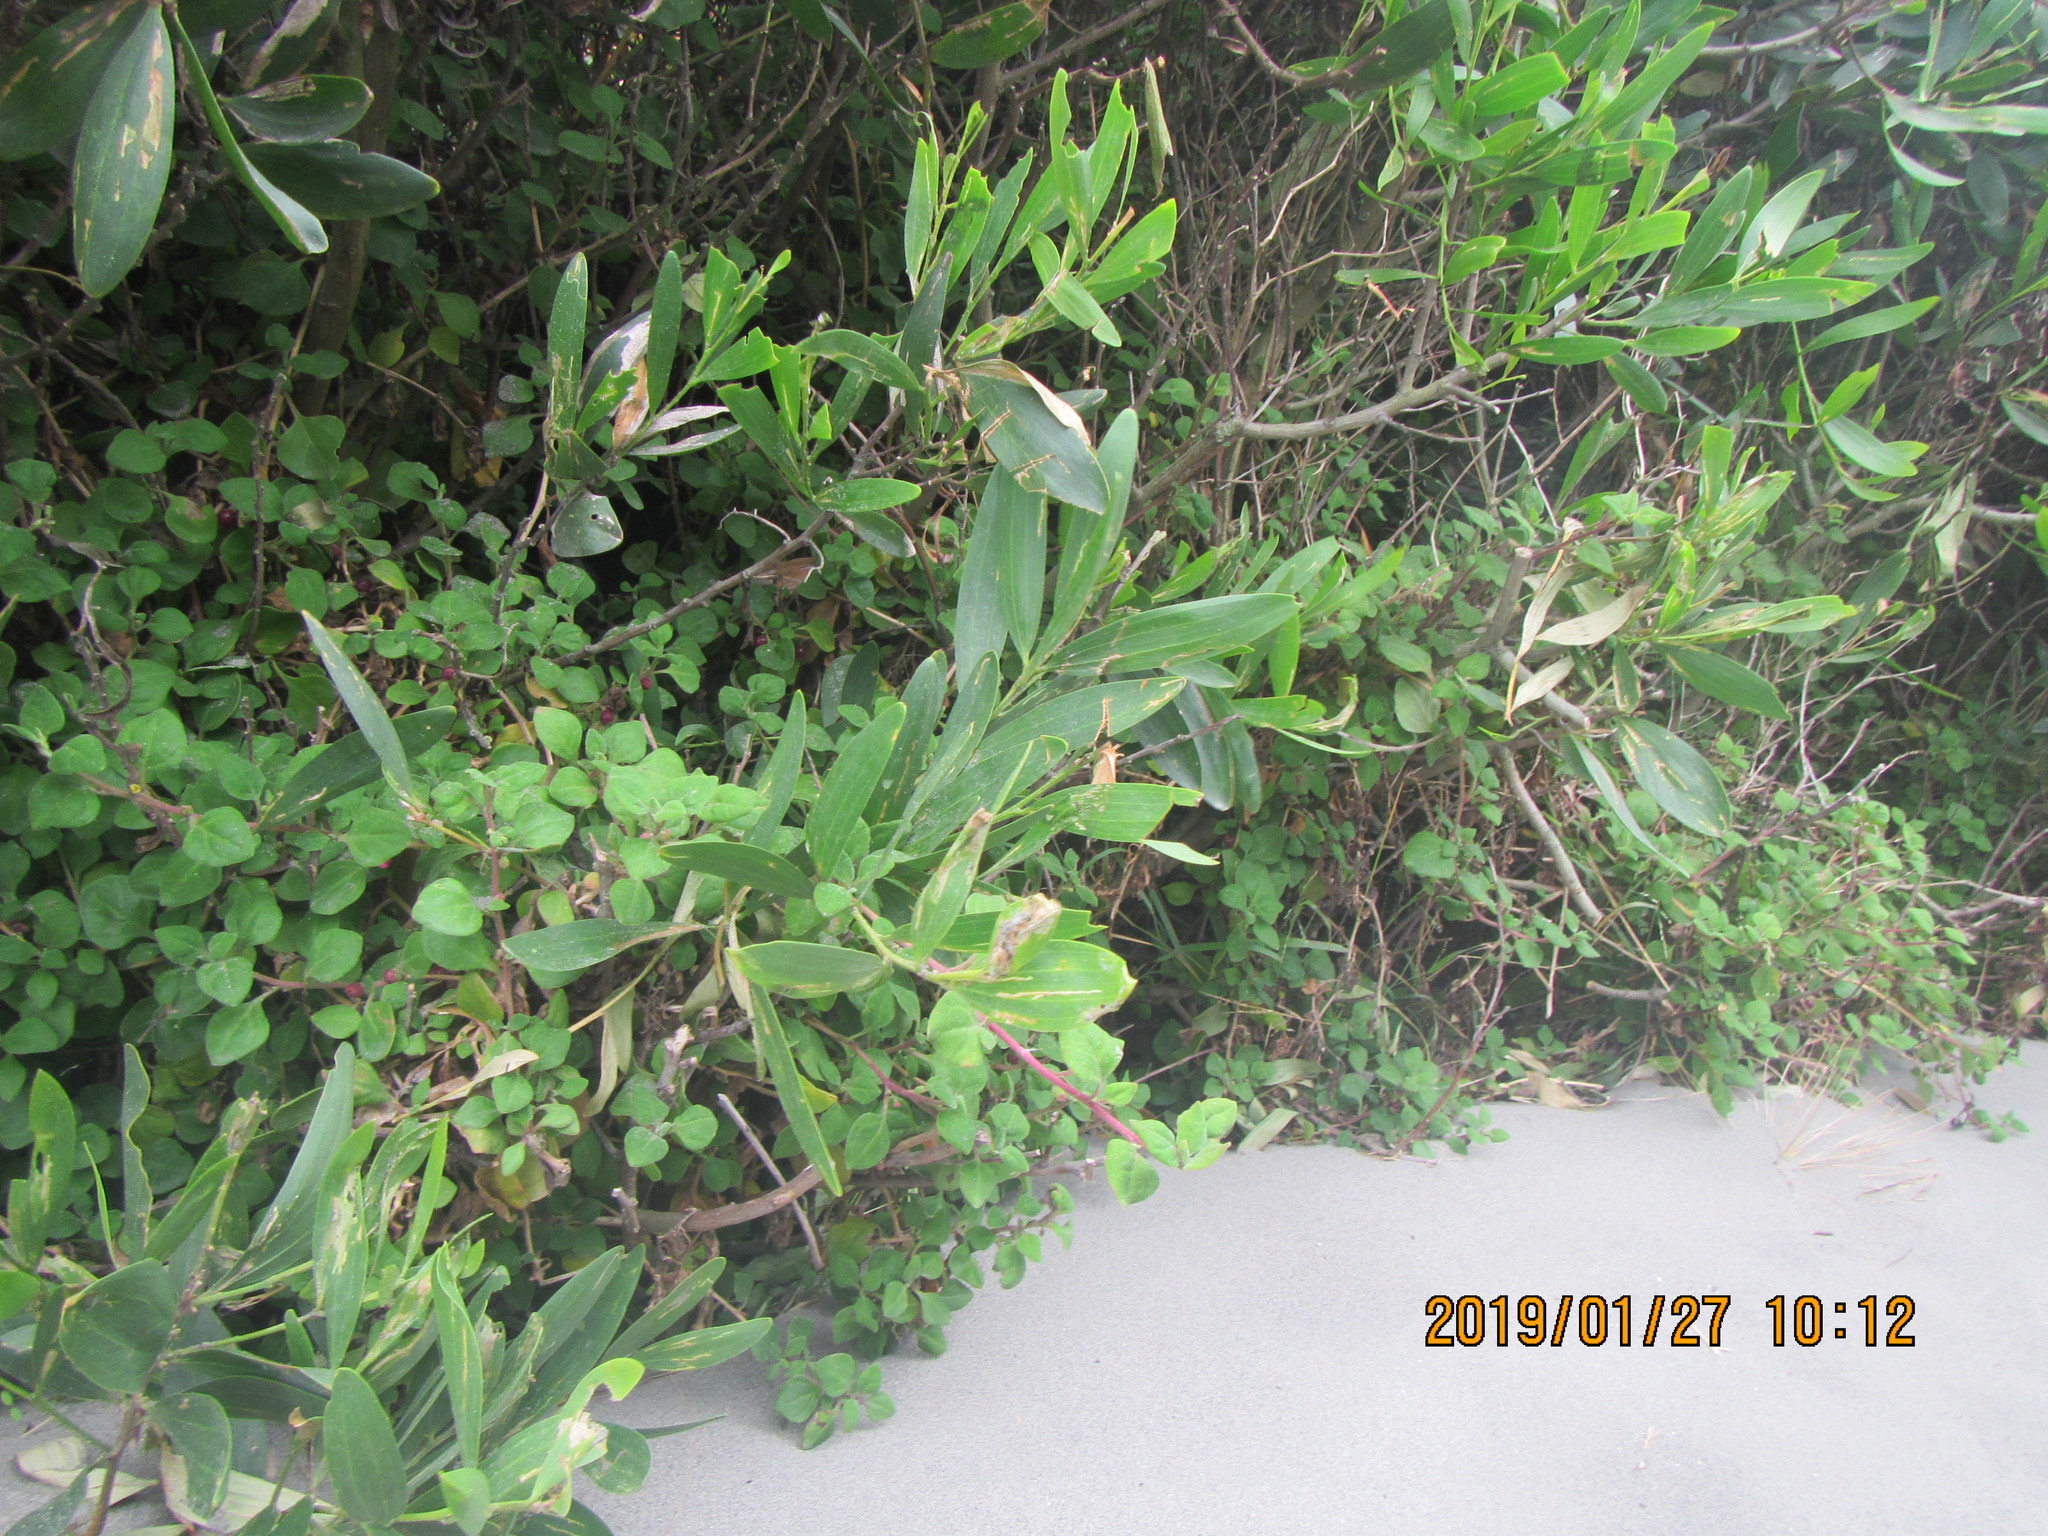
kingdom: Plantae
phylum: Tracheophyta
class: Magnoliopsida
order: Caryophyllales
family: Aizoaceae
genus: Tetragonia
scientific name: Tetragonia implexicoma
